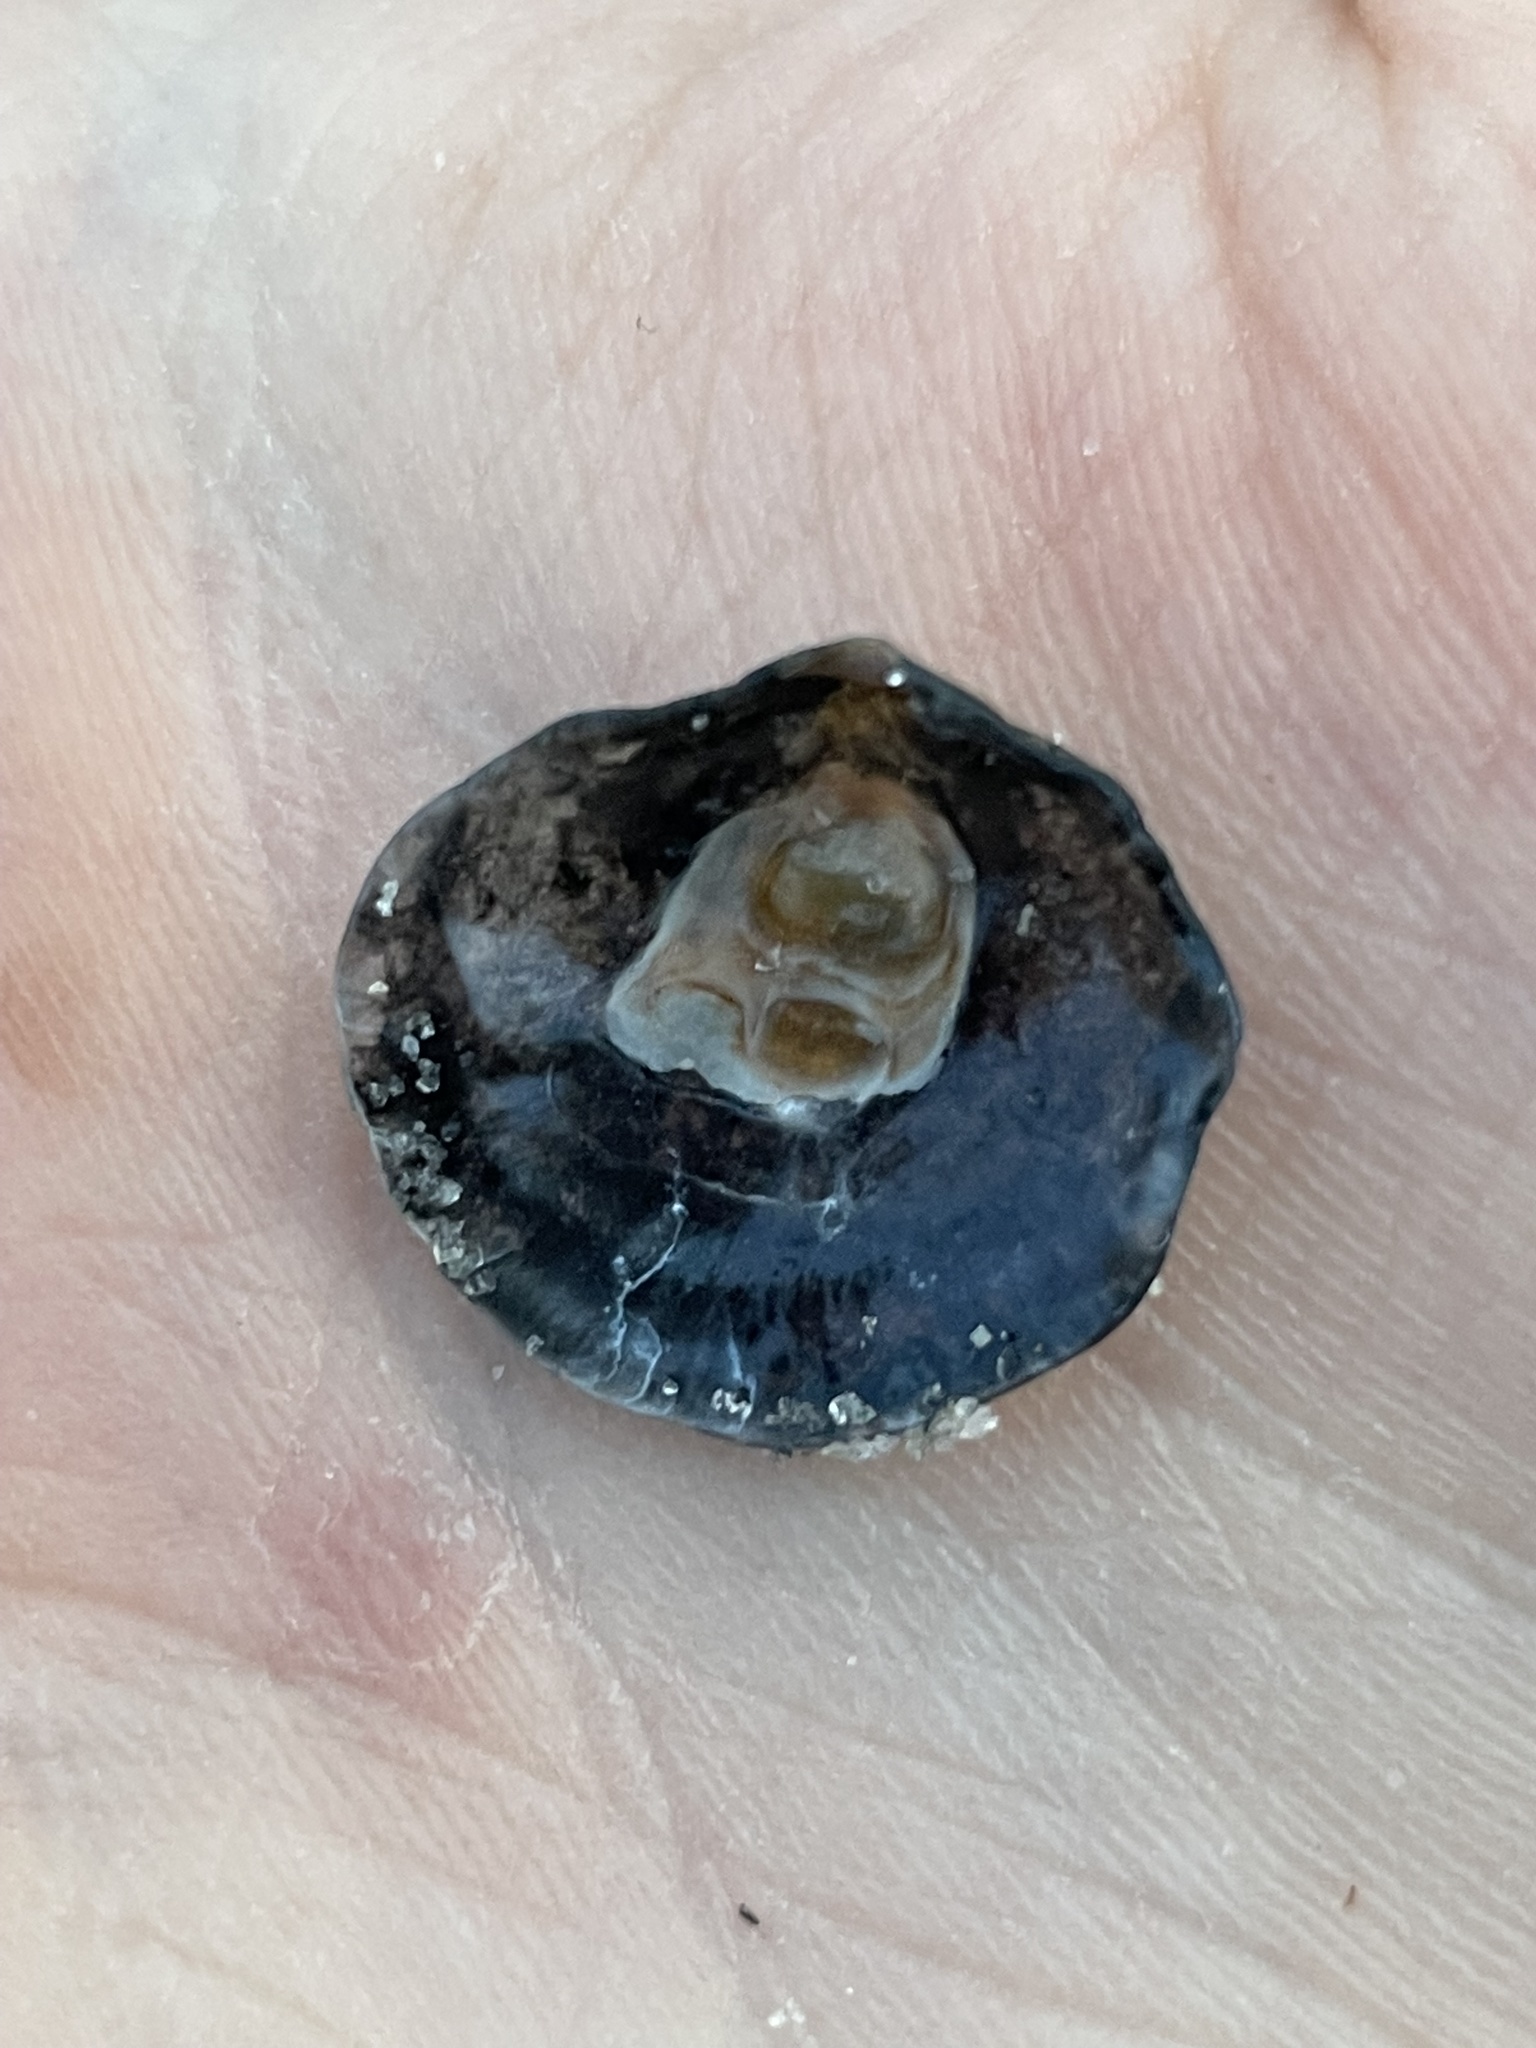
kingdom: Animalia
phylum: Mollusca
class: Bivalvia
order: Pectinida
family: Anomiidae
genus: Anomia
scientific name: Anomia simplex
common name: Common jingle shell
